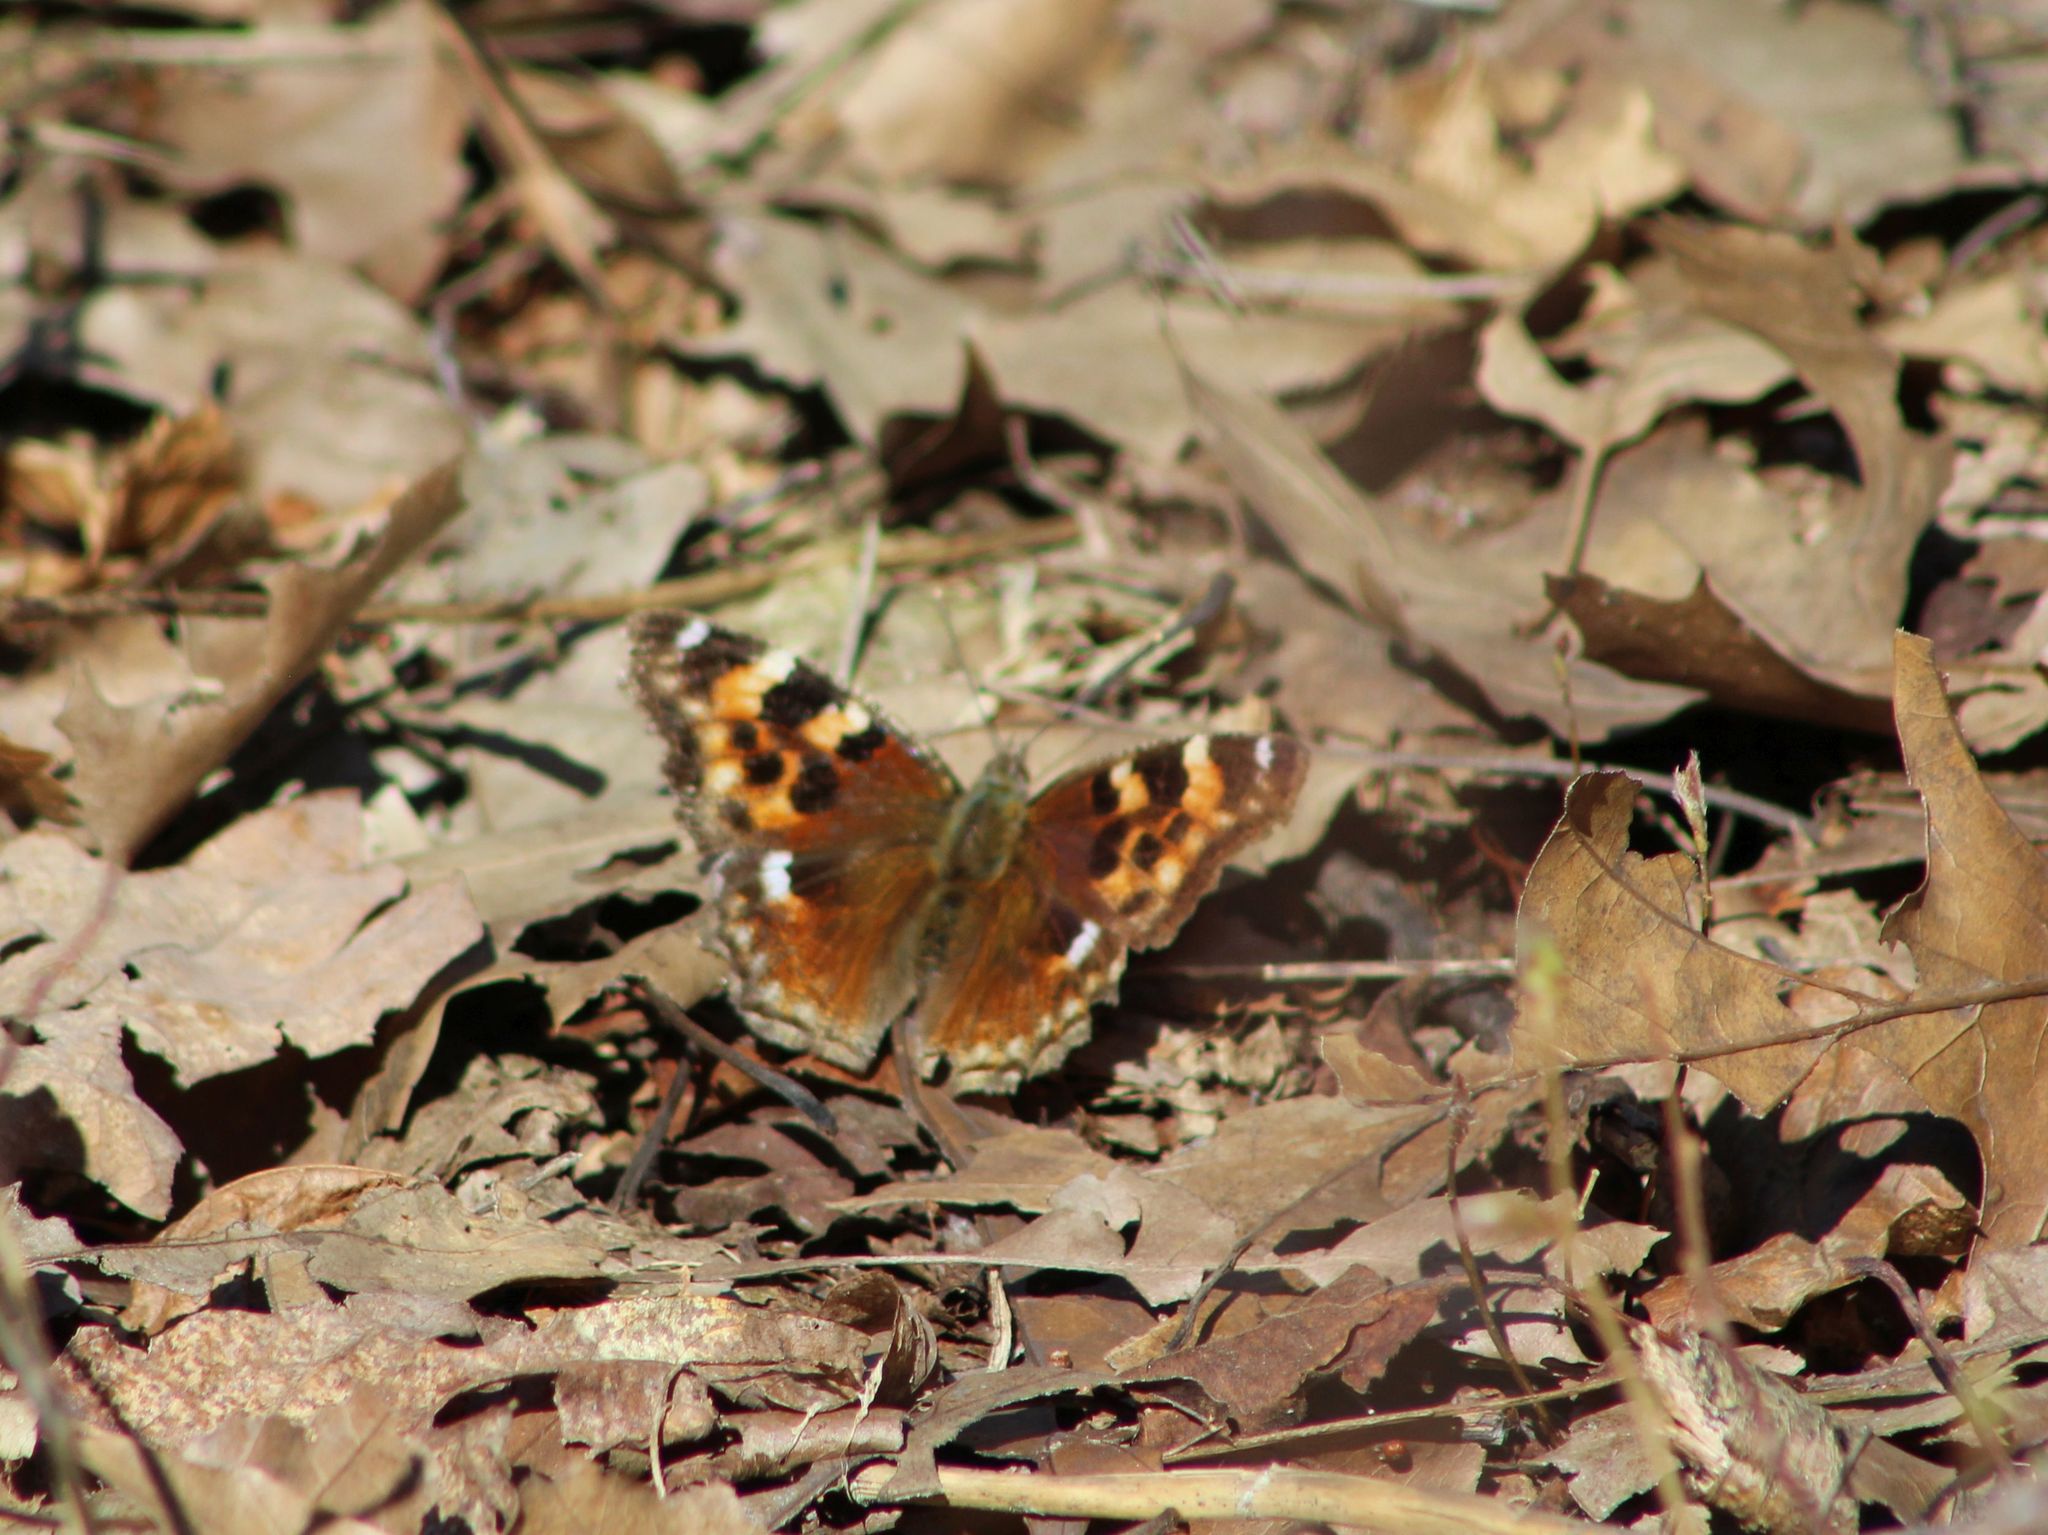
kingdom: Animalia
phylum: Arthropoda
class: Insecta
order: Lepidoptera
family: Nymphalidae
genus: Polygonia
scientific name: Polygonia vaualbum
